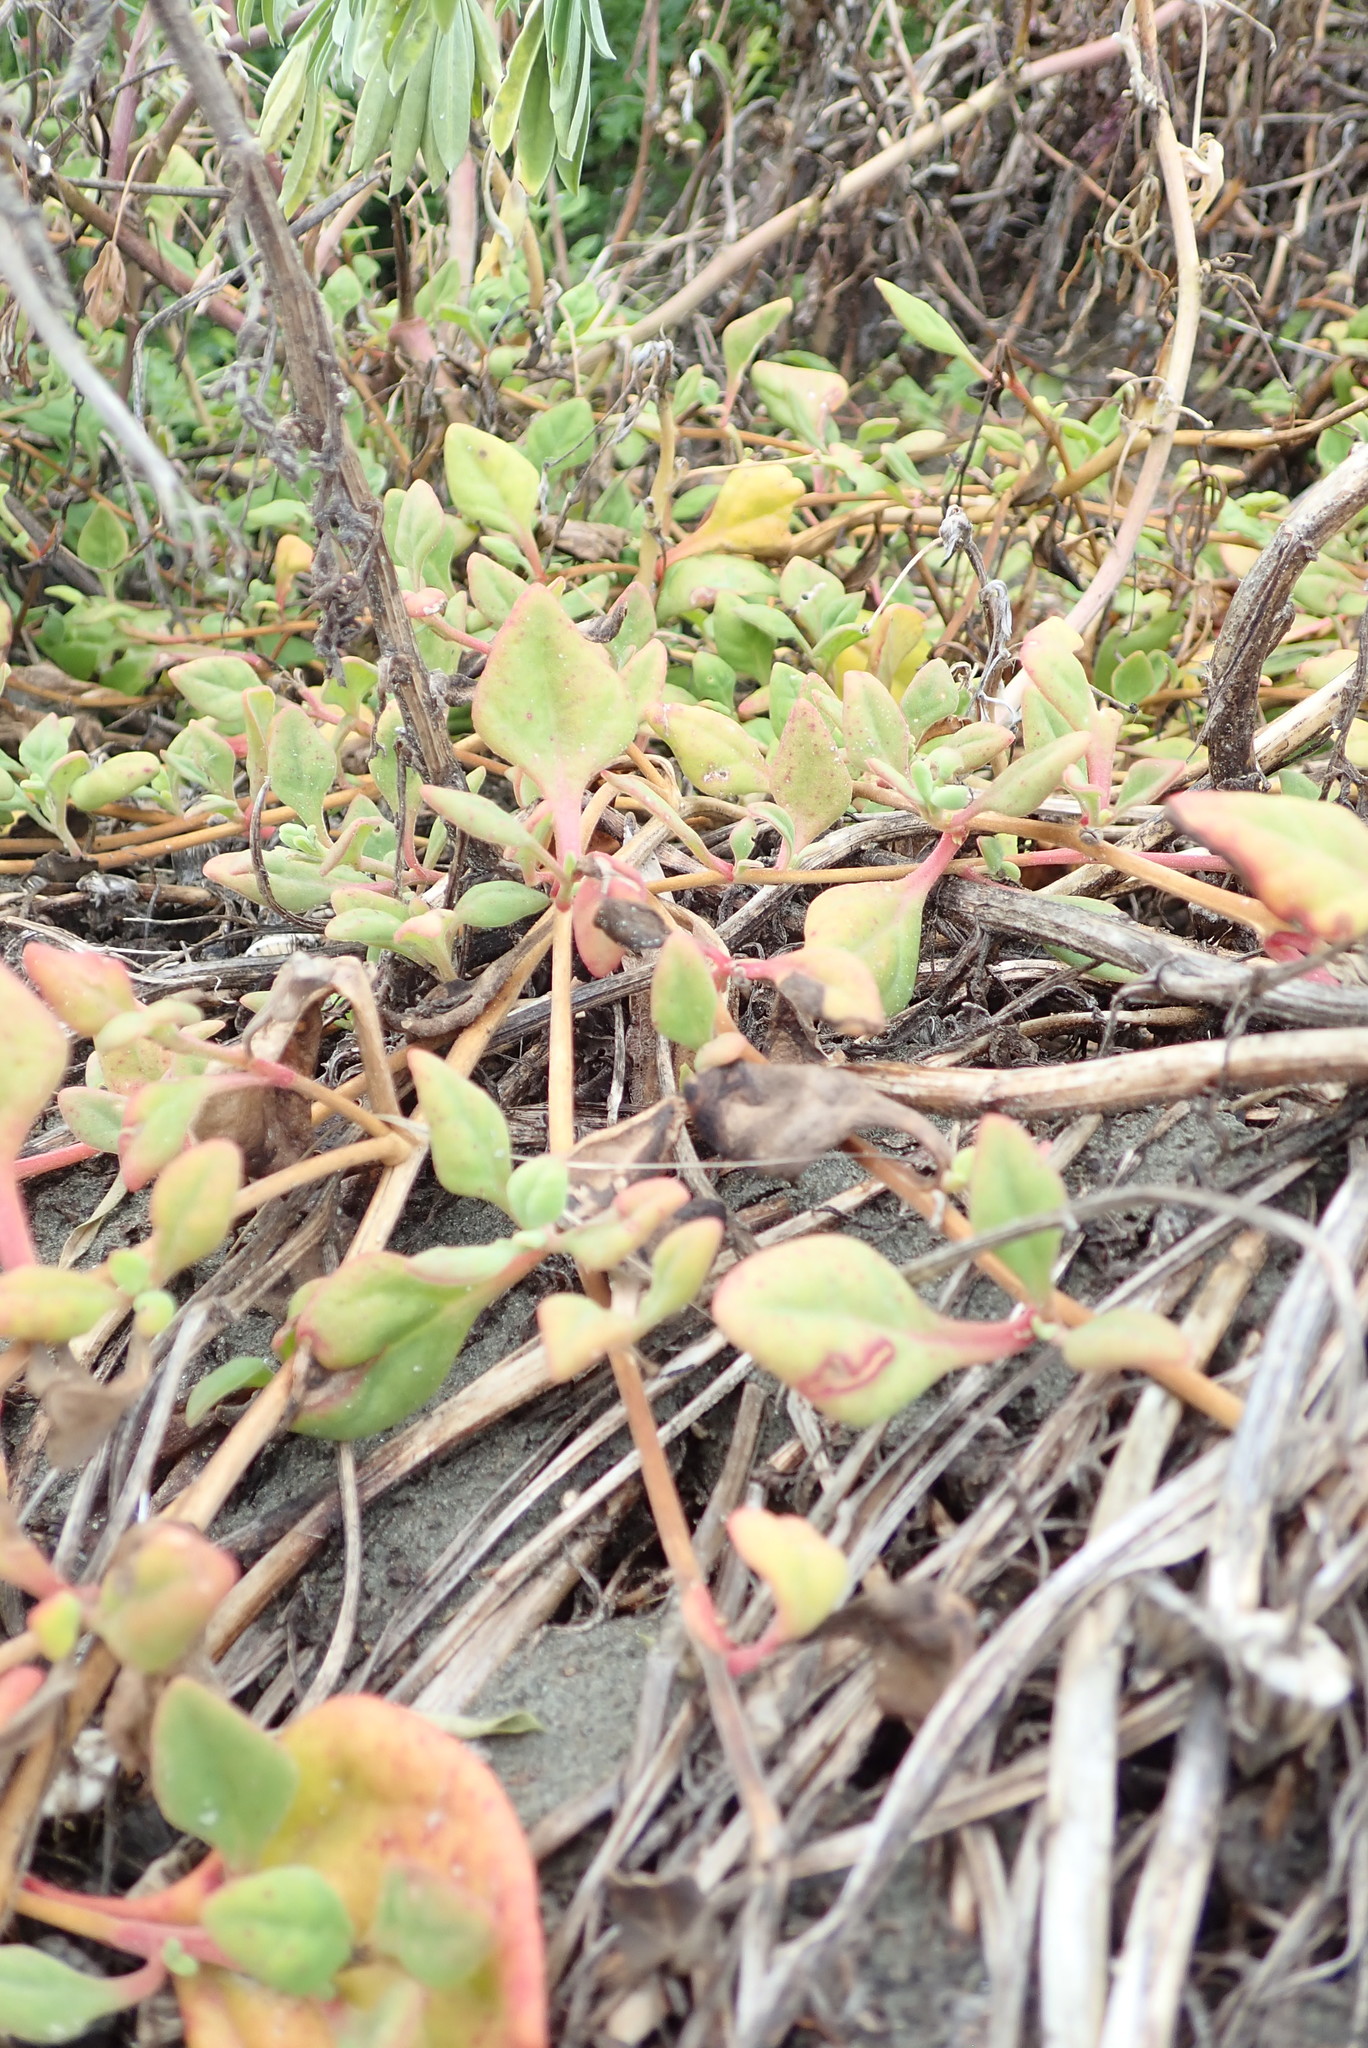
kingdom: Plantae
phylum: Tracheophyta
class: Magnoliopsida
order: Caryophyllales
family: Aizoaceae
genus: Tetragonia
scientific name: Tetragonia implexicoma
